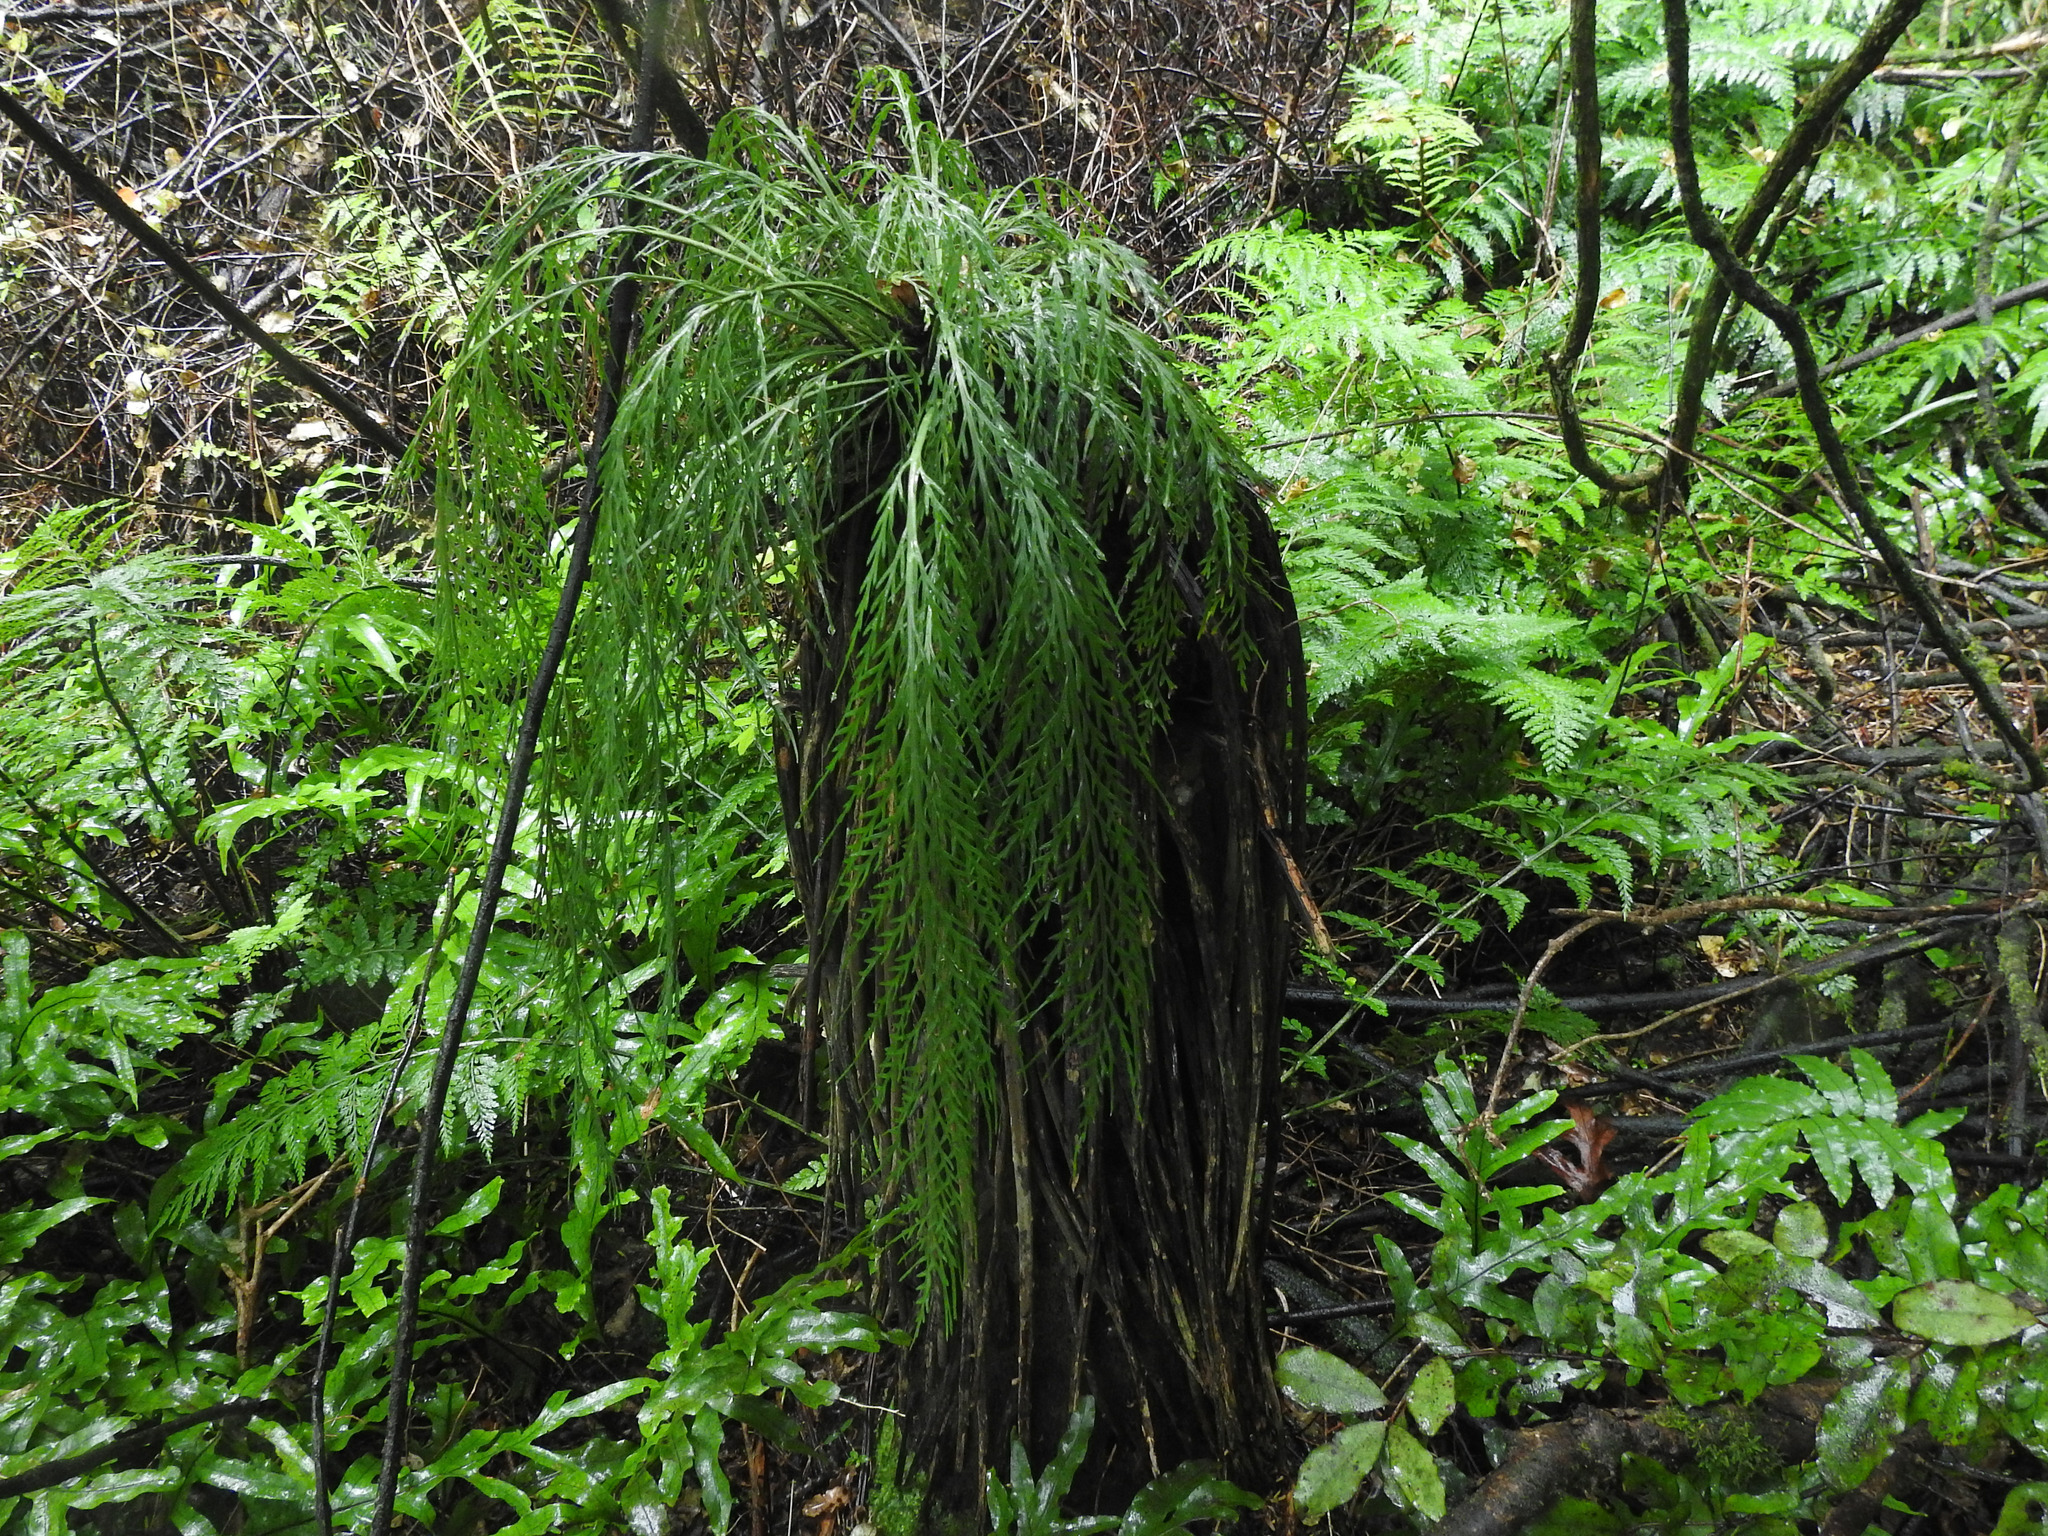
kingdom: Plantae
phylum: Tracheophyta
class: Polypodiopsida
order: Polypodiales
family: Aspleniaceae
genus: Asplenium
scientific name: Asplenium flaccidum
